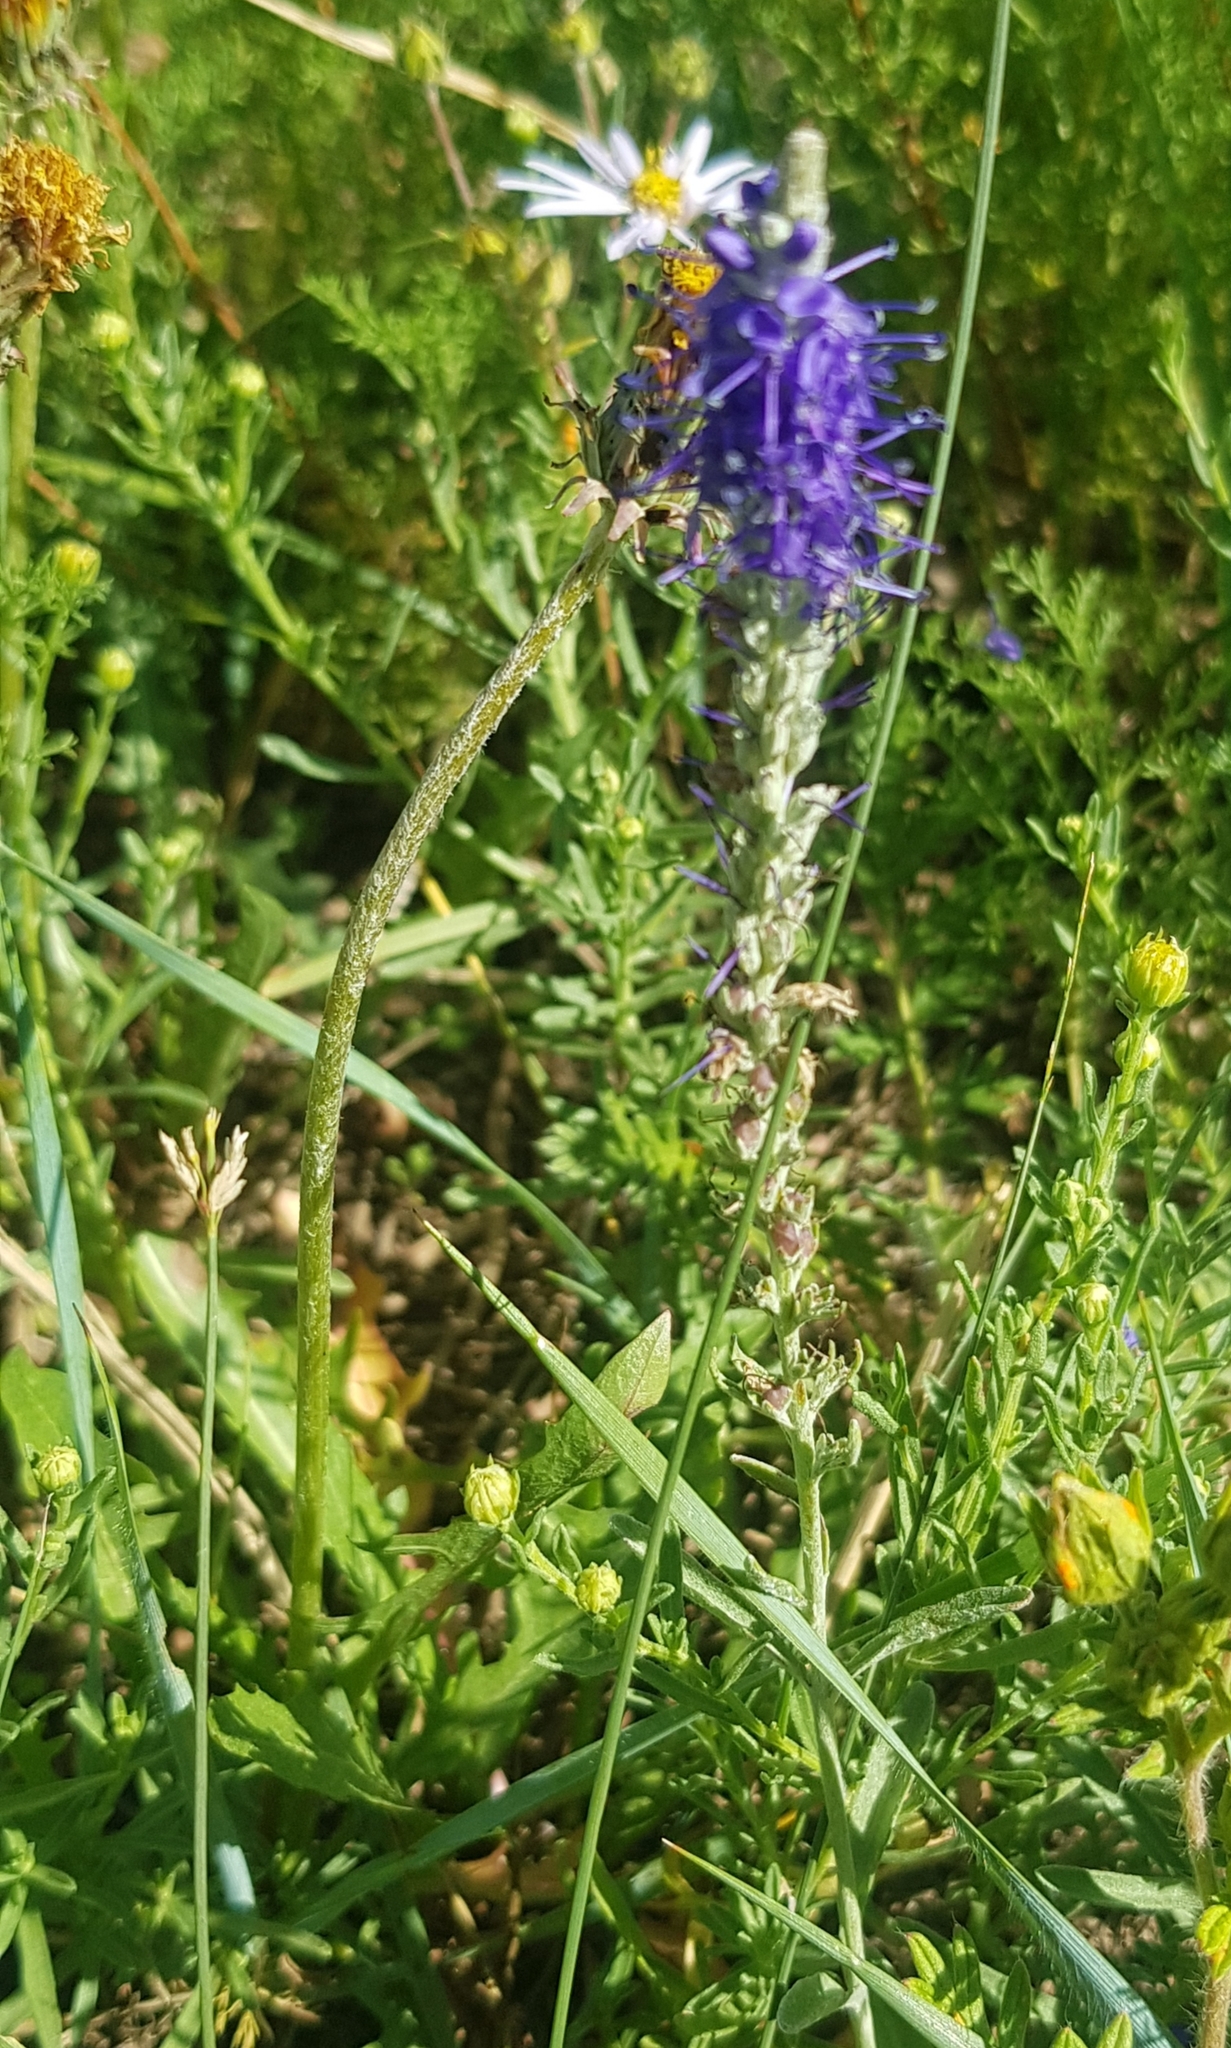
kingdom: Plantae
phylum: Tracheophyta
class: Magnoliopsida
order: Lamiales
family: Plantaginaceae
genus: Veronica
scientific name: Veronica incana
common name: Silver speedwell
